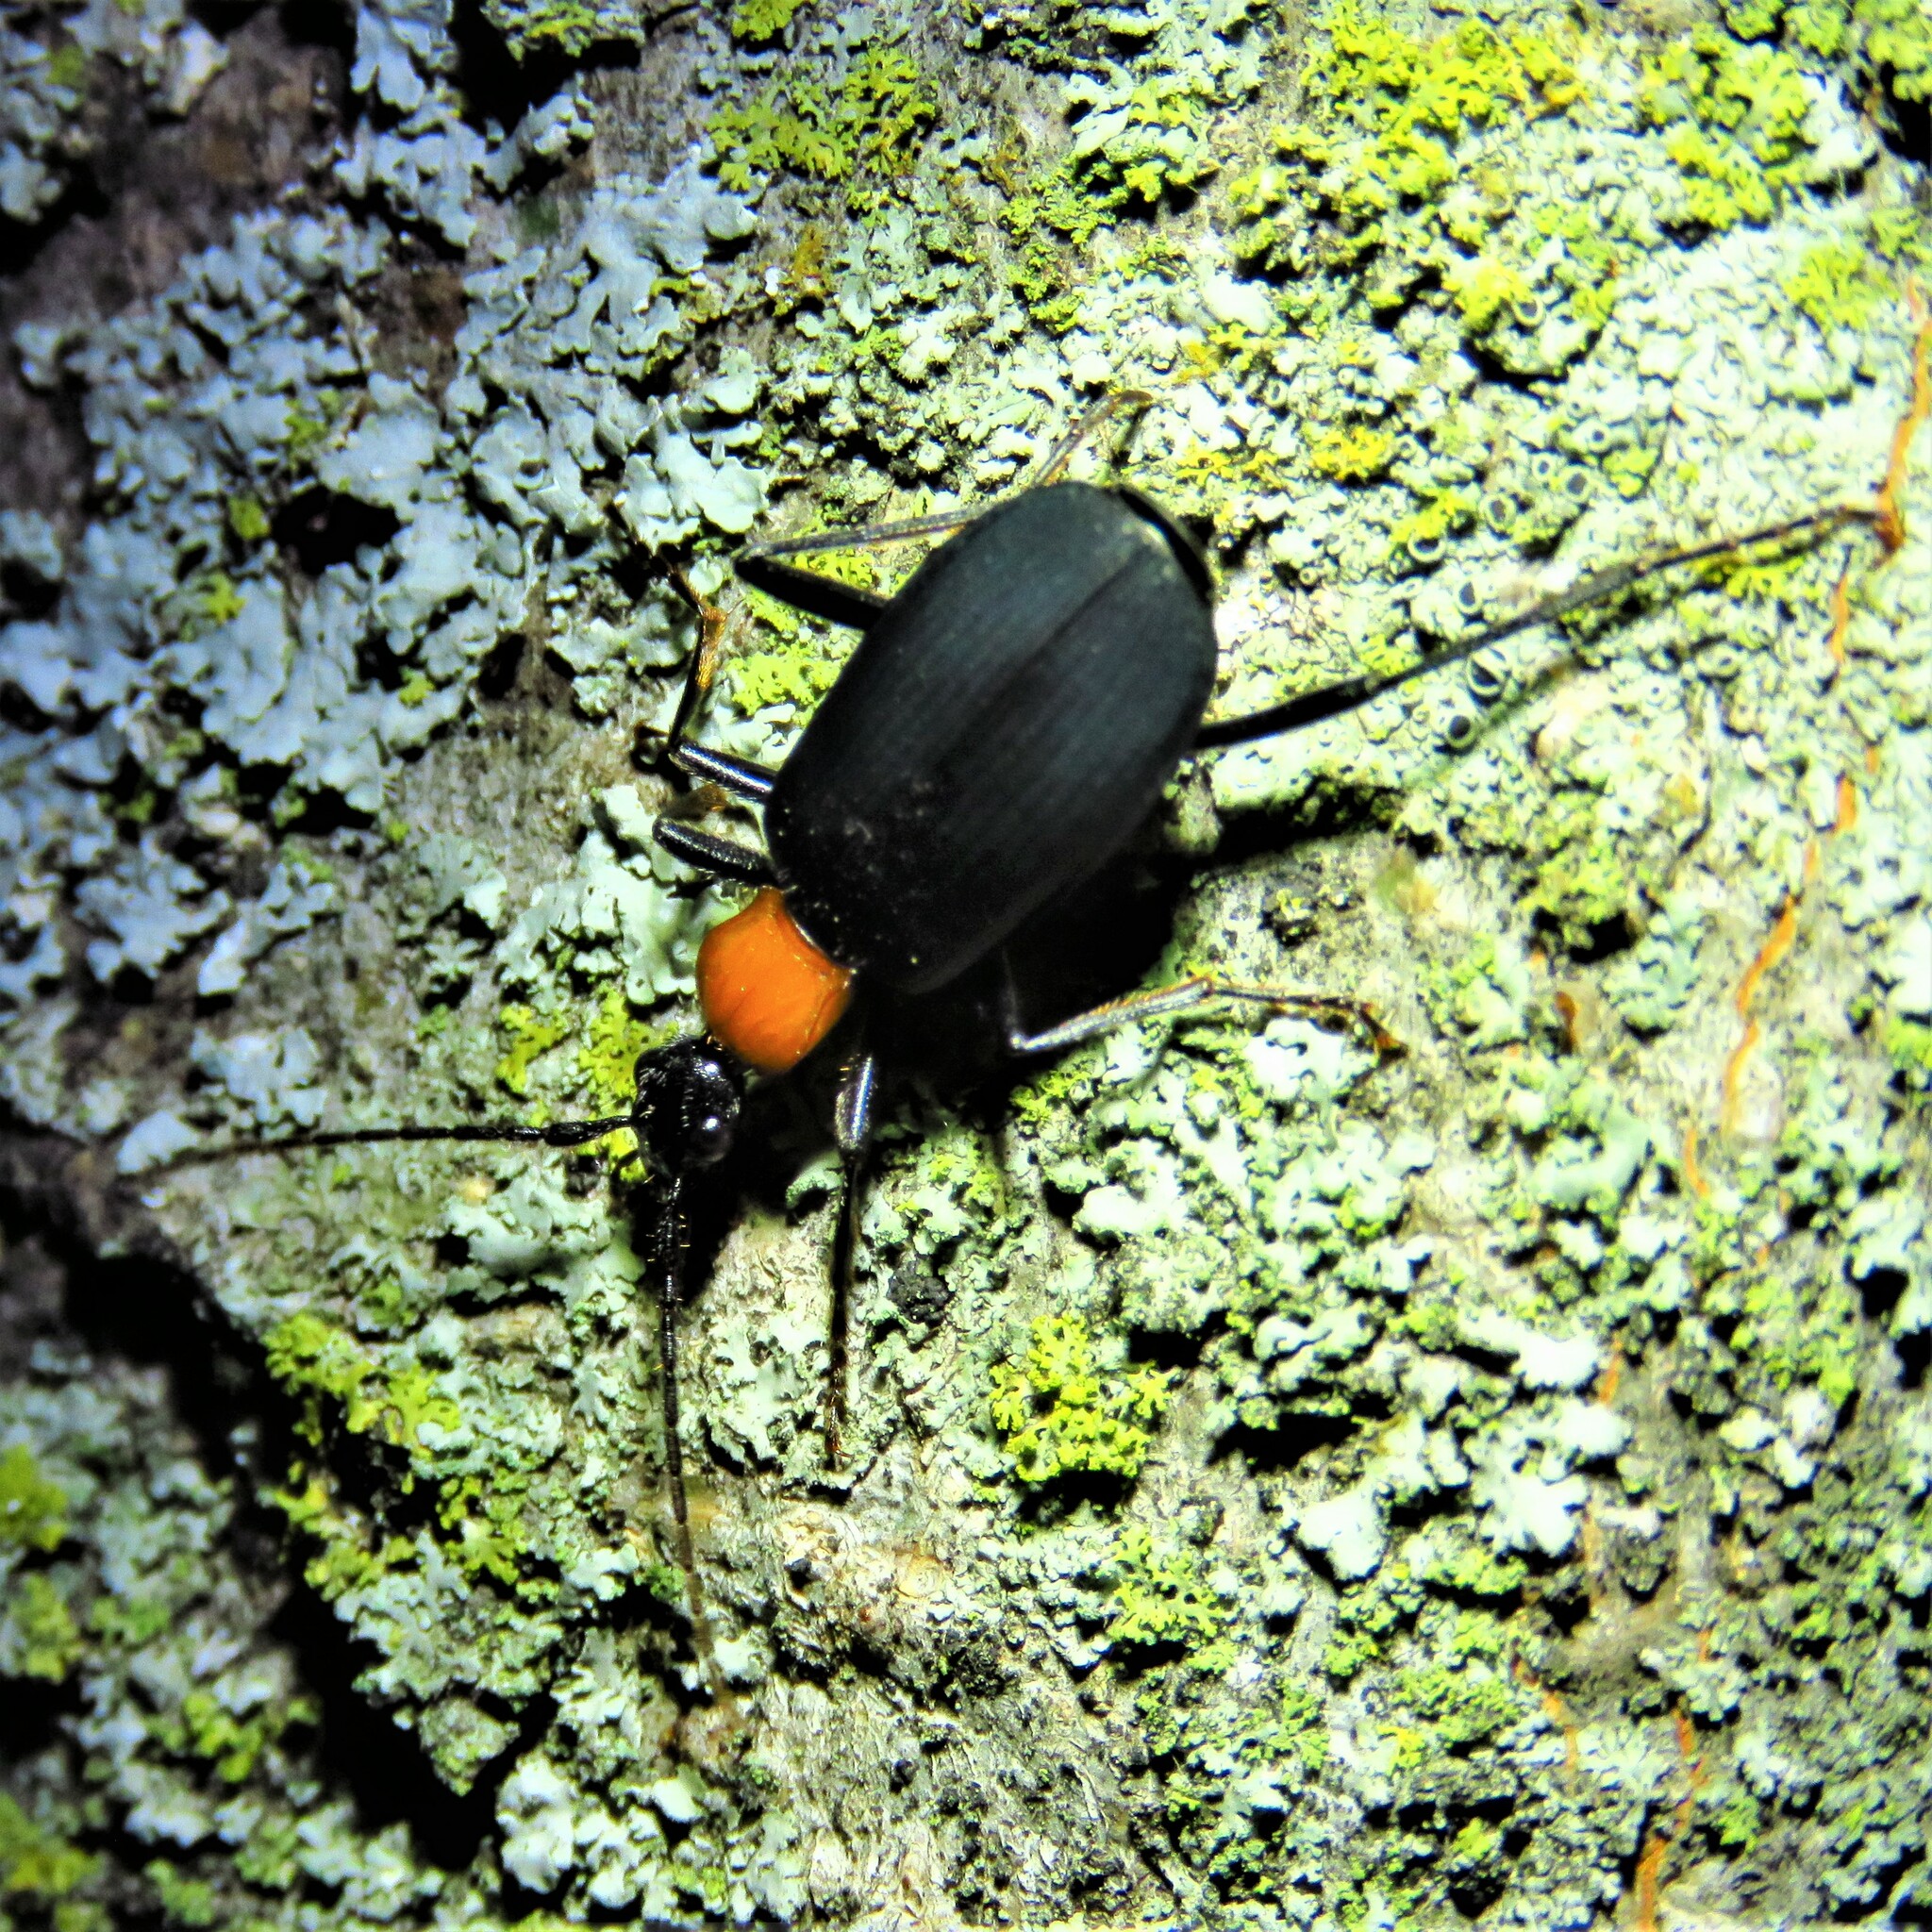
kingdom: Animalia
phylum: Arthropoda
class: Insecta
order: Coleoptera
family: Carabidae
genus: Galerita
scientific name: Galerita mexicana
